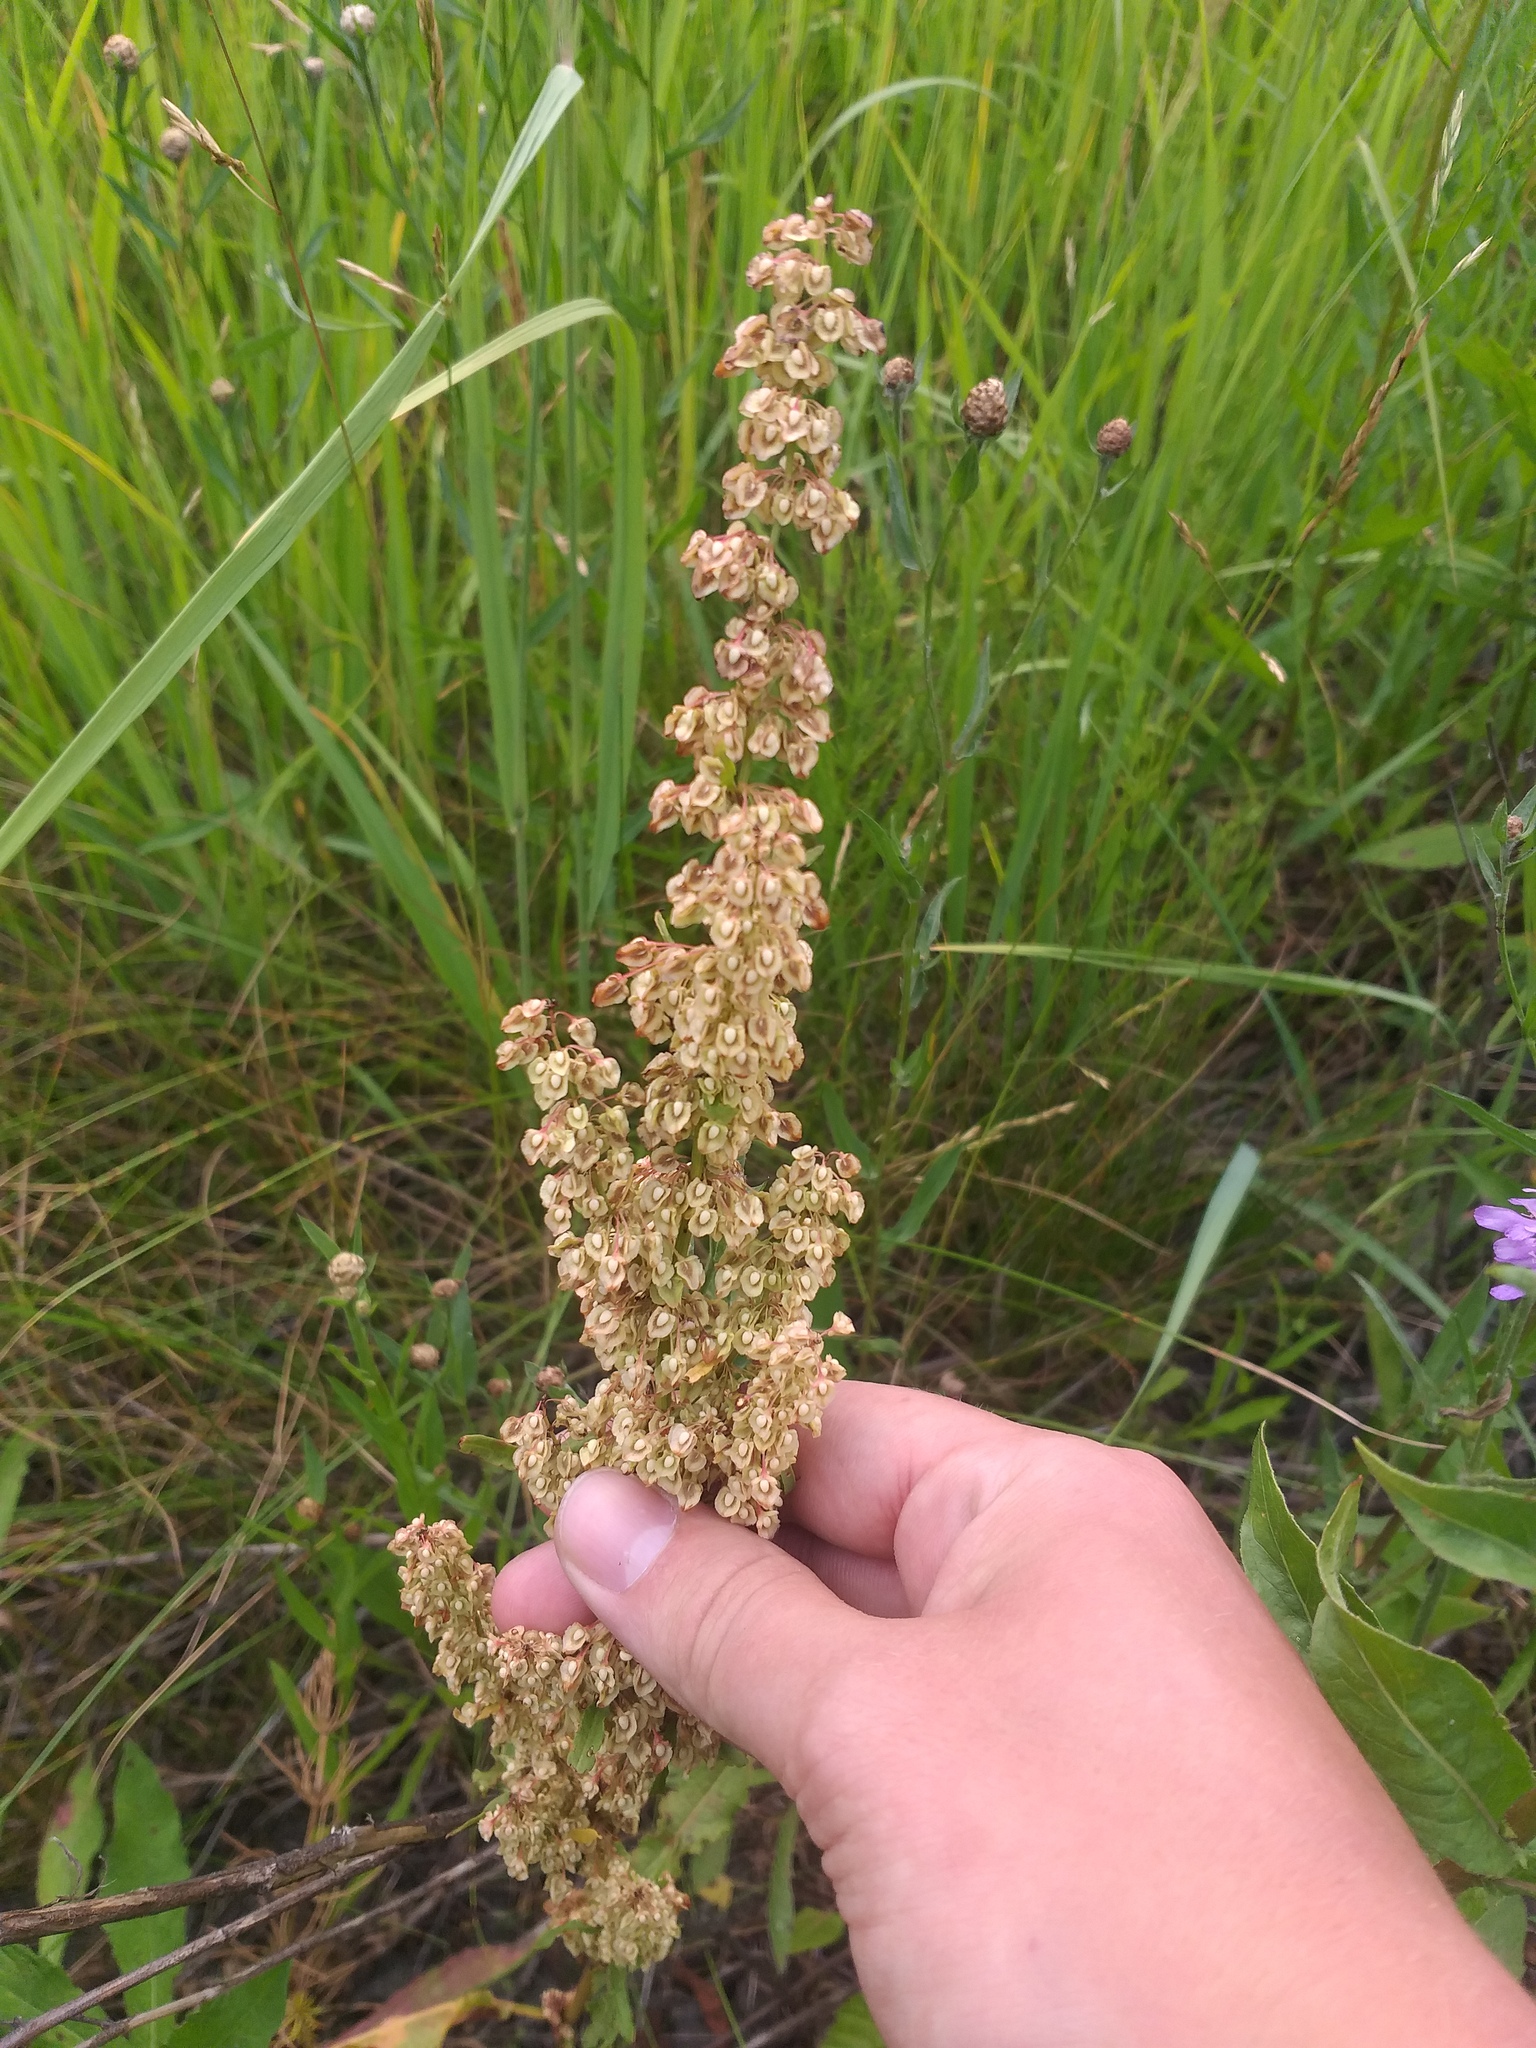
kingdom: Plantae
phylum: Tracheophyta
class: Magnoliopsida
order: Caryophyllales
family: Polygonaceae
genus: Rumex
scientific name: Rumex crispus
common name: Curled dock
